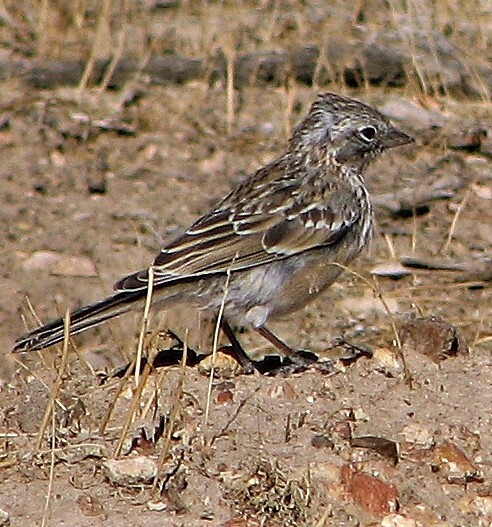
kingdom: Animalia
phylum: Chordata
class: Aves
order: Passeriformes
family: Passerellidae
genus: Zonotrichia
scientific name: Zonotrichia capensis
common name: Rufous-collared sparrow
